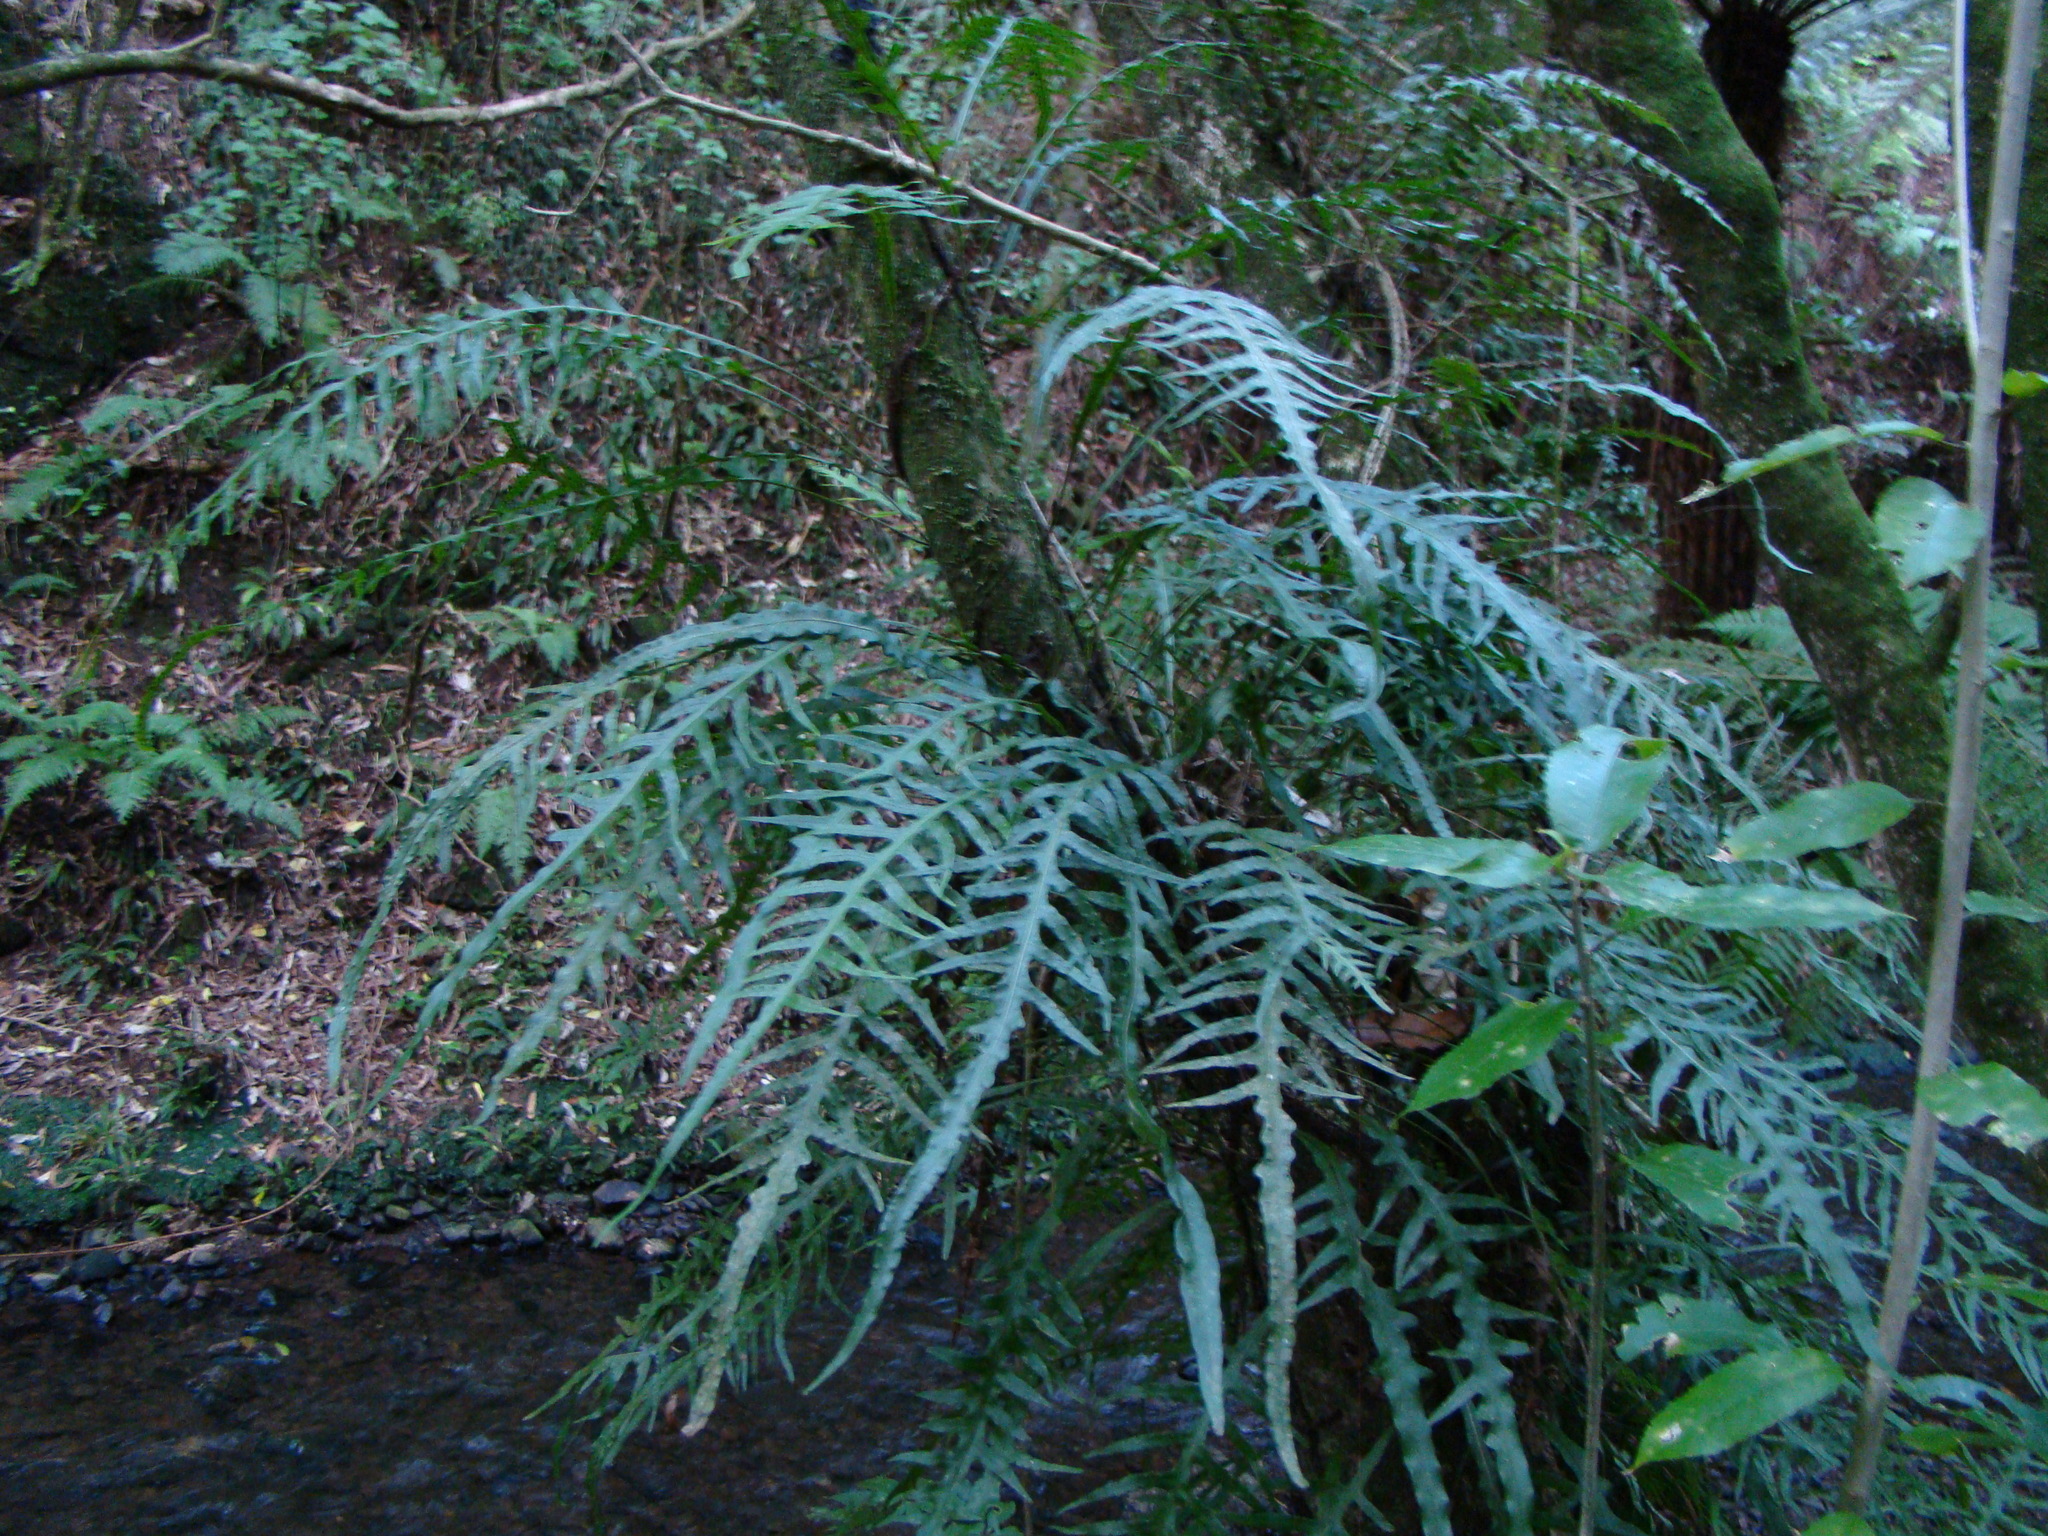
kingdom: Plantae
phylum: Tracheophyta
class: Polypodiopsida
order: Polypodiales
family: Polypodiaceae
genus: Lecanopteris
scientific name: Lecanopteris scandens
